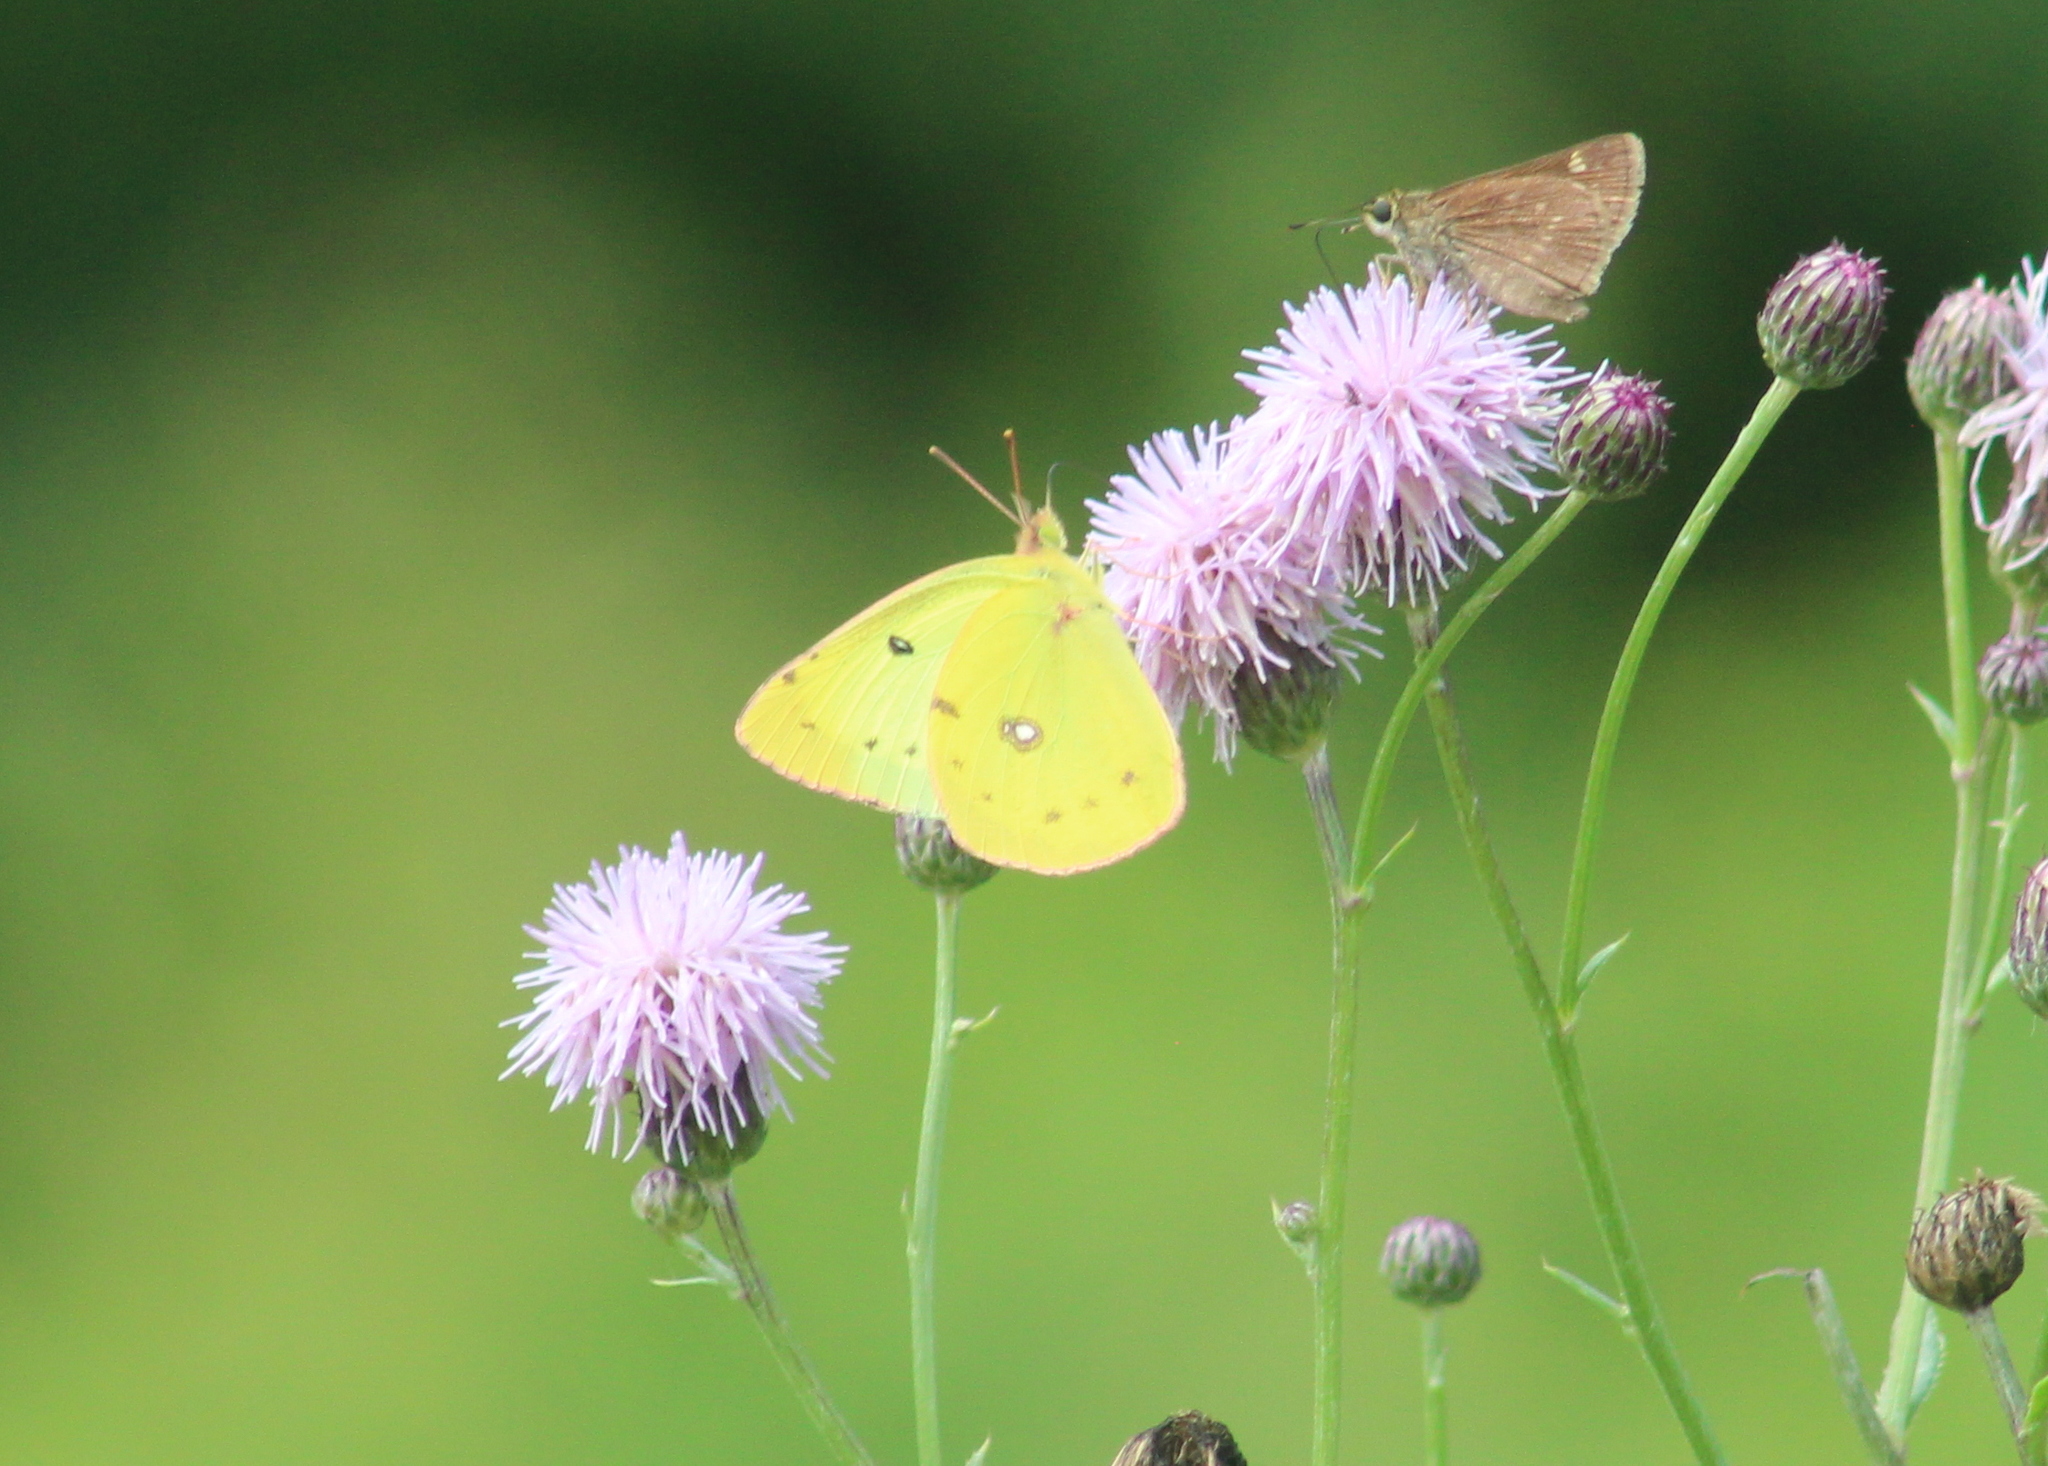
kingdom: Animalia
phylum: Arthropoda
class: Insecta
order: Lepidoptera
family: Pieridae
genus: Colias
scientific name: Colias philodice
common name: Clouded sulphur
